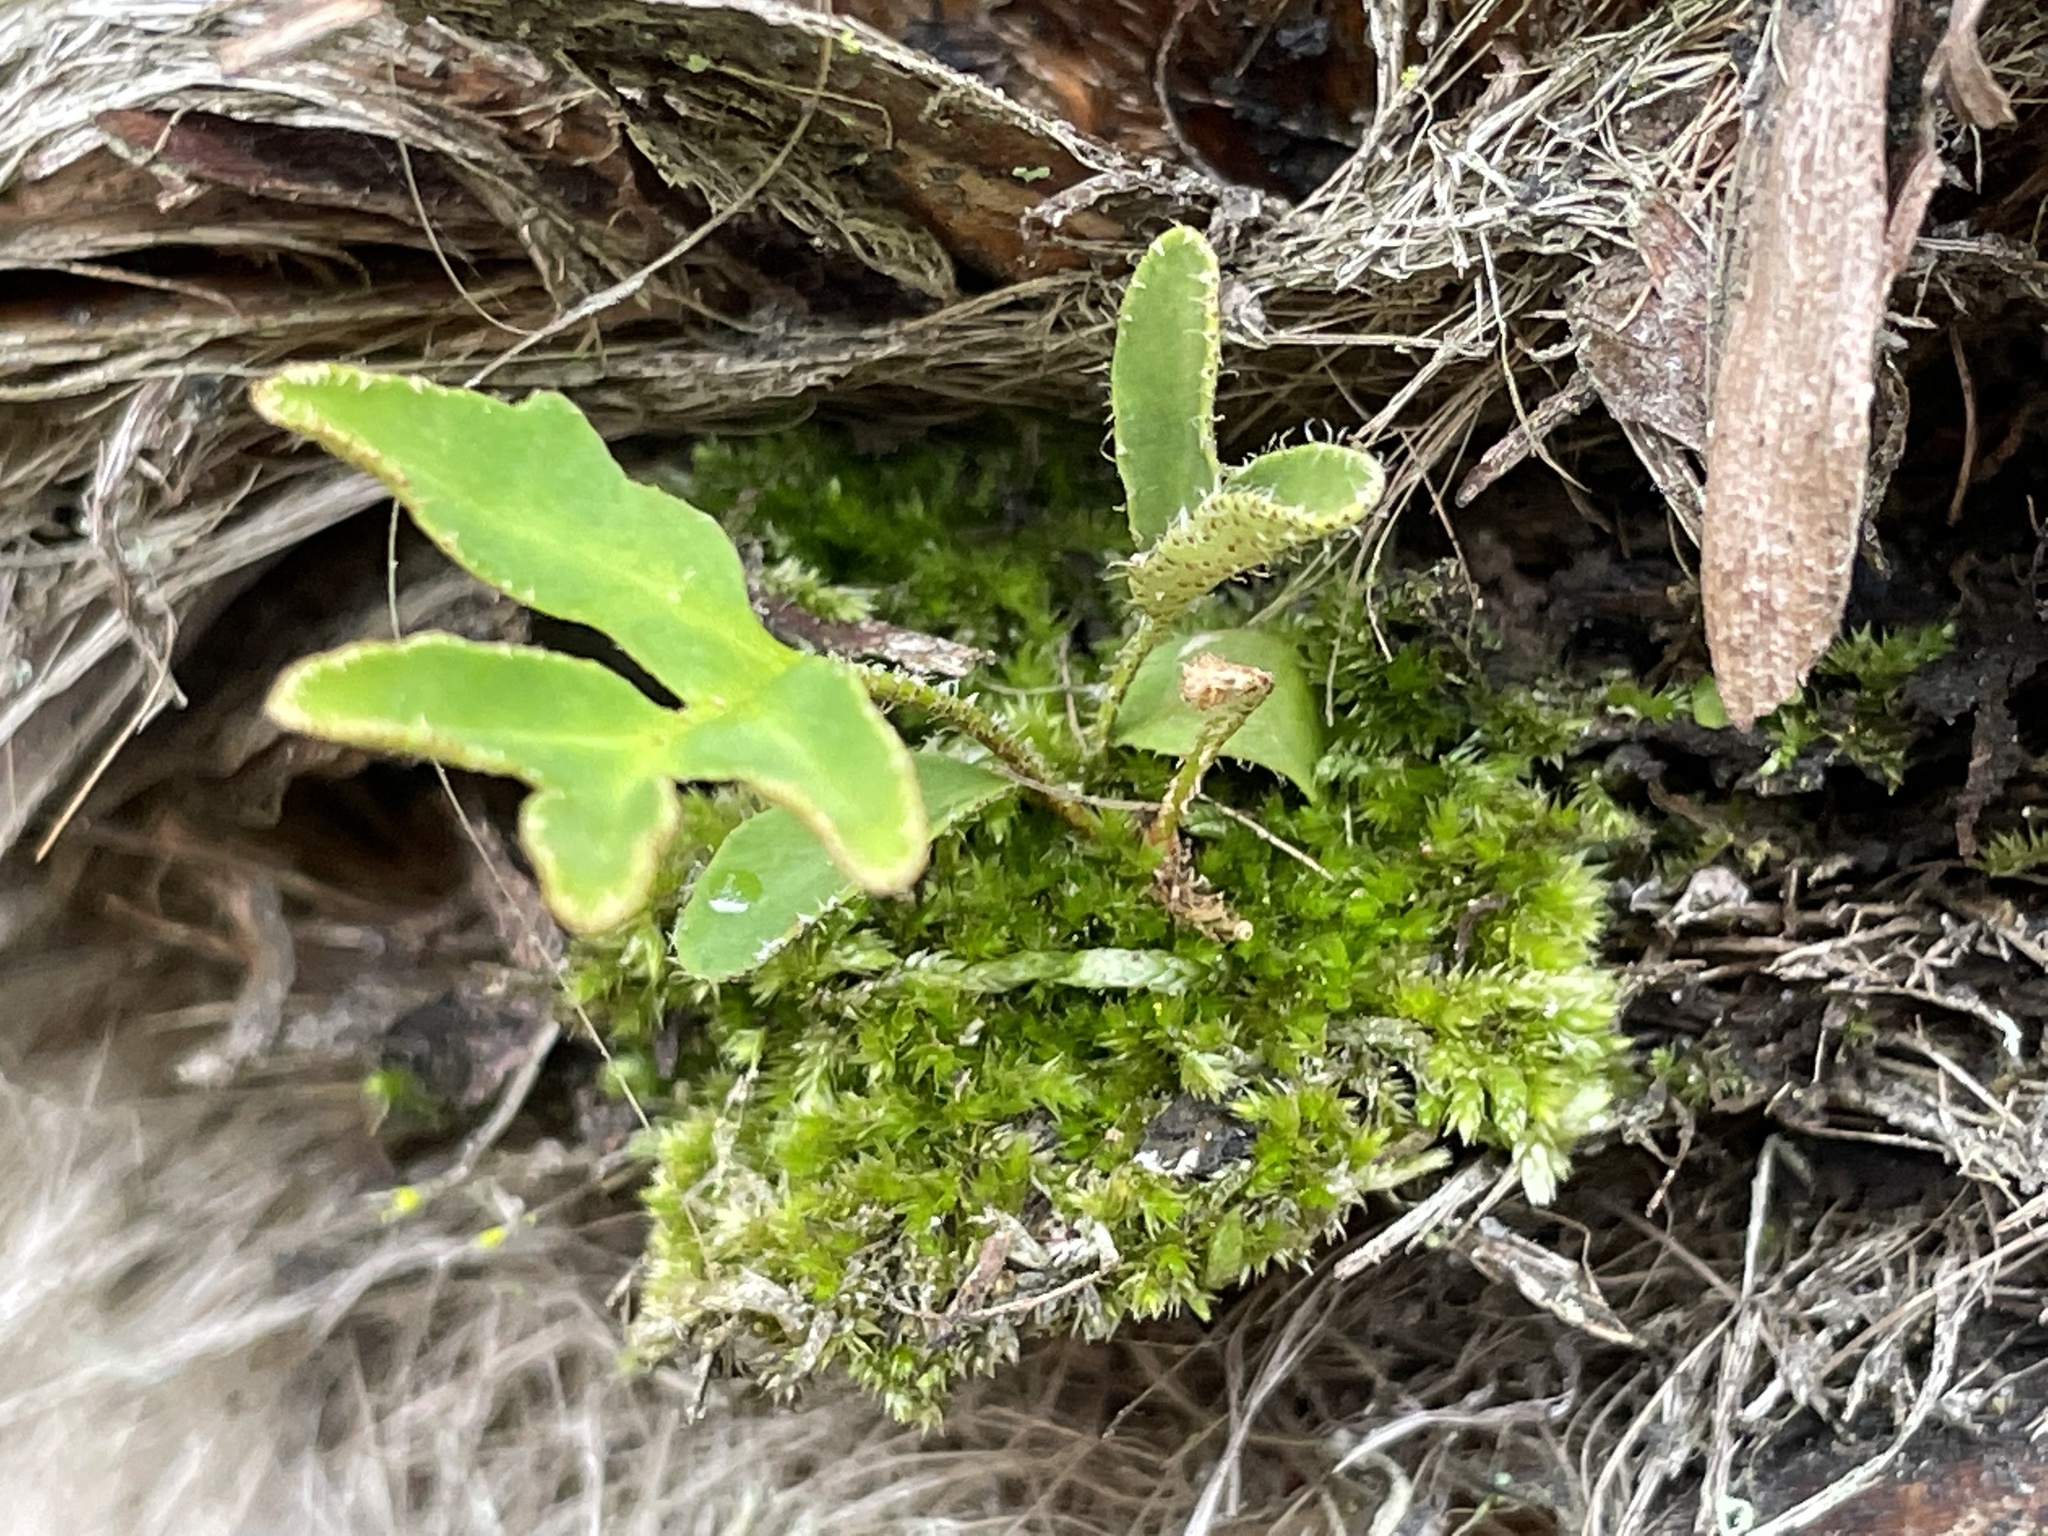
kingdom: Plantae
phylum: Tracheophyta
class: Polypodiopsida
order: Polypodiales
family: Polypodiaceae
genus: Pleopeltis
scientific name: Pleopeltis michauxiana
